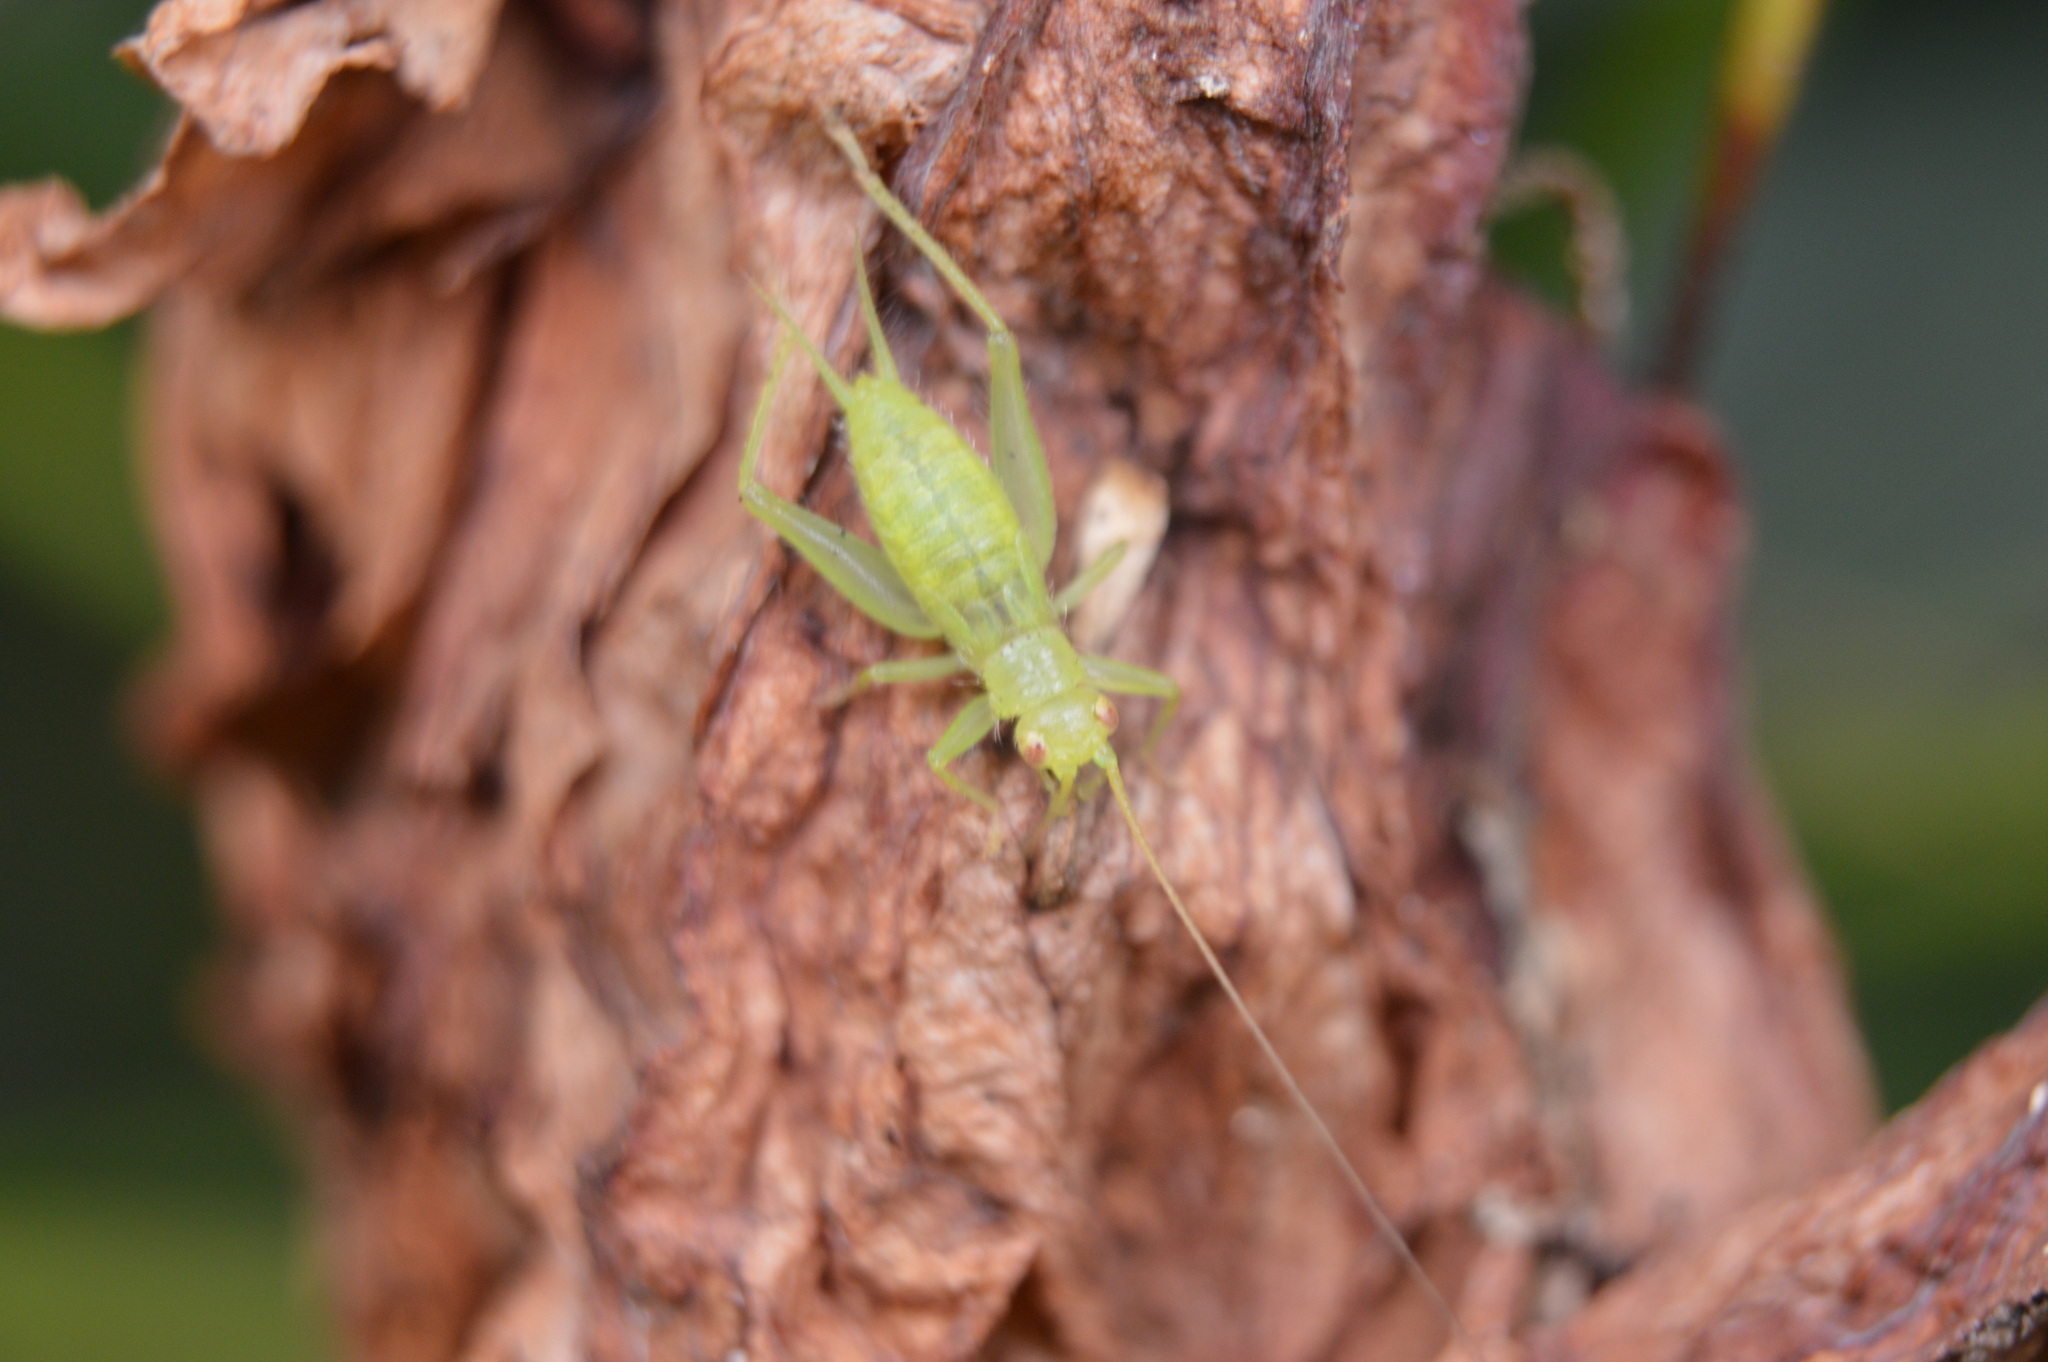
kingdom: Animalia
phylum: Arthropoda
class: Insecta
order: Orthoptera
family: Trigonidiidae
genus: Cyrtoxipha
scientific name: Cyrtoxipha columbiana
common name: Columbian trig
